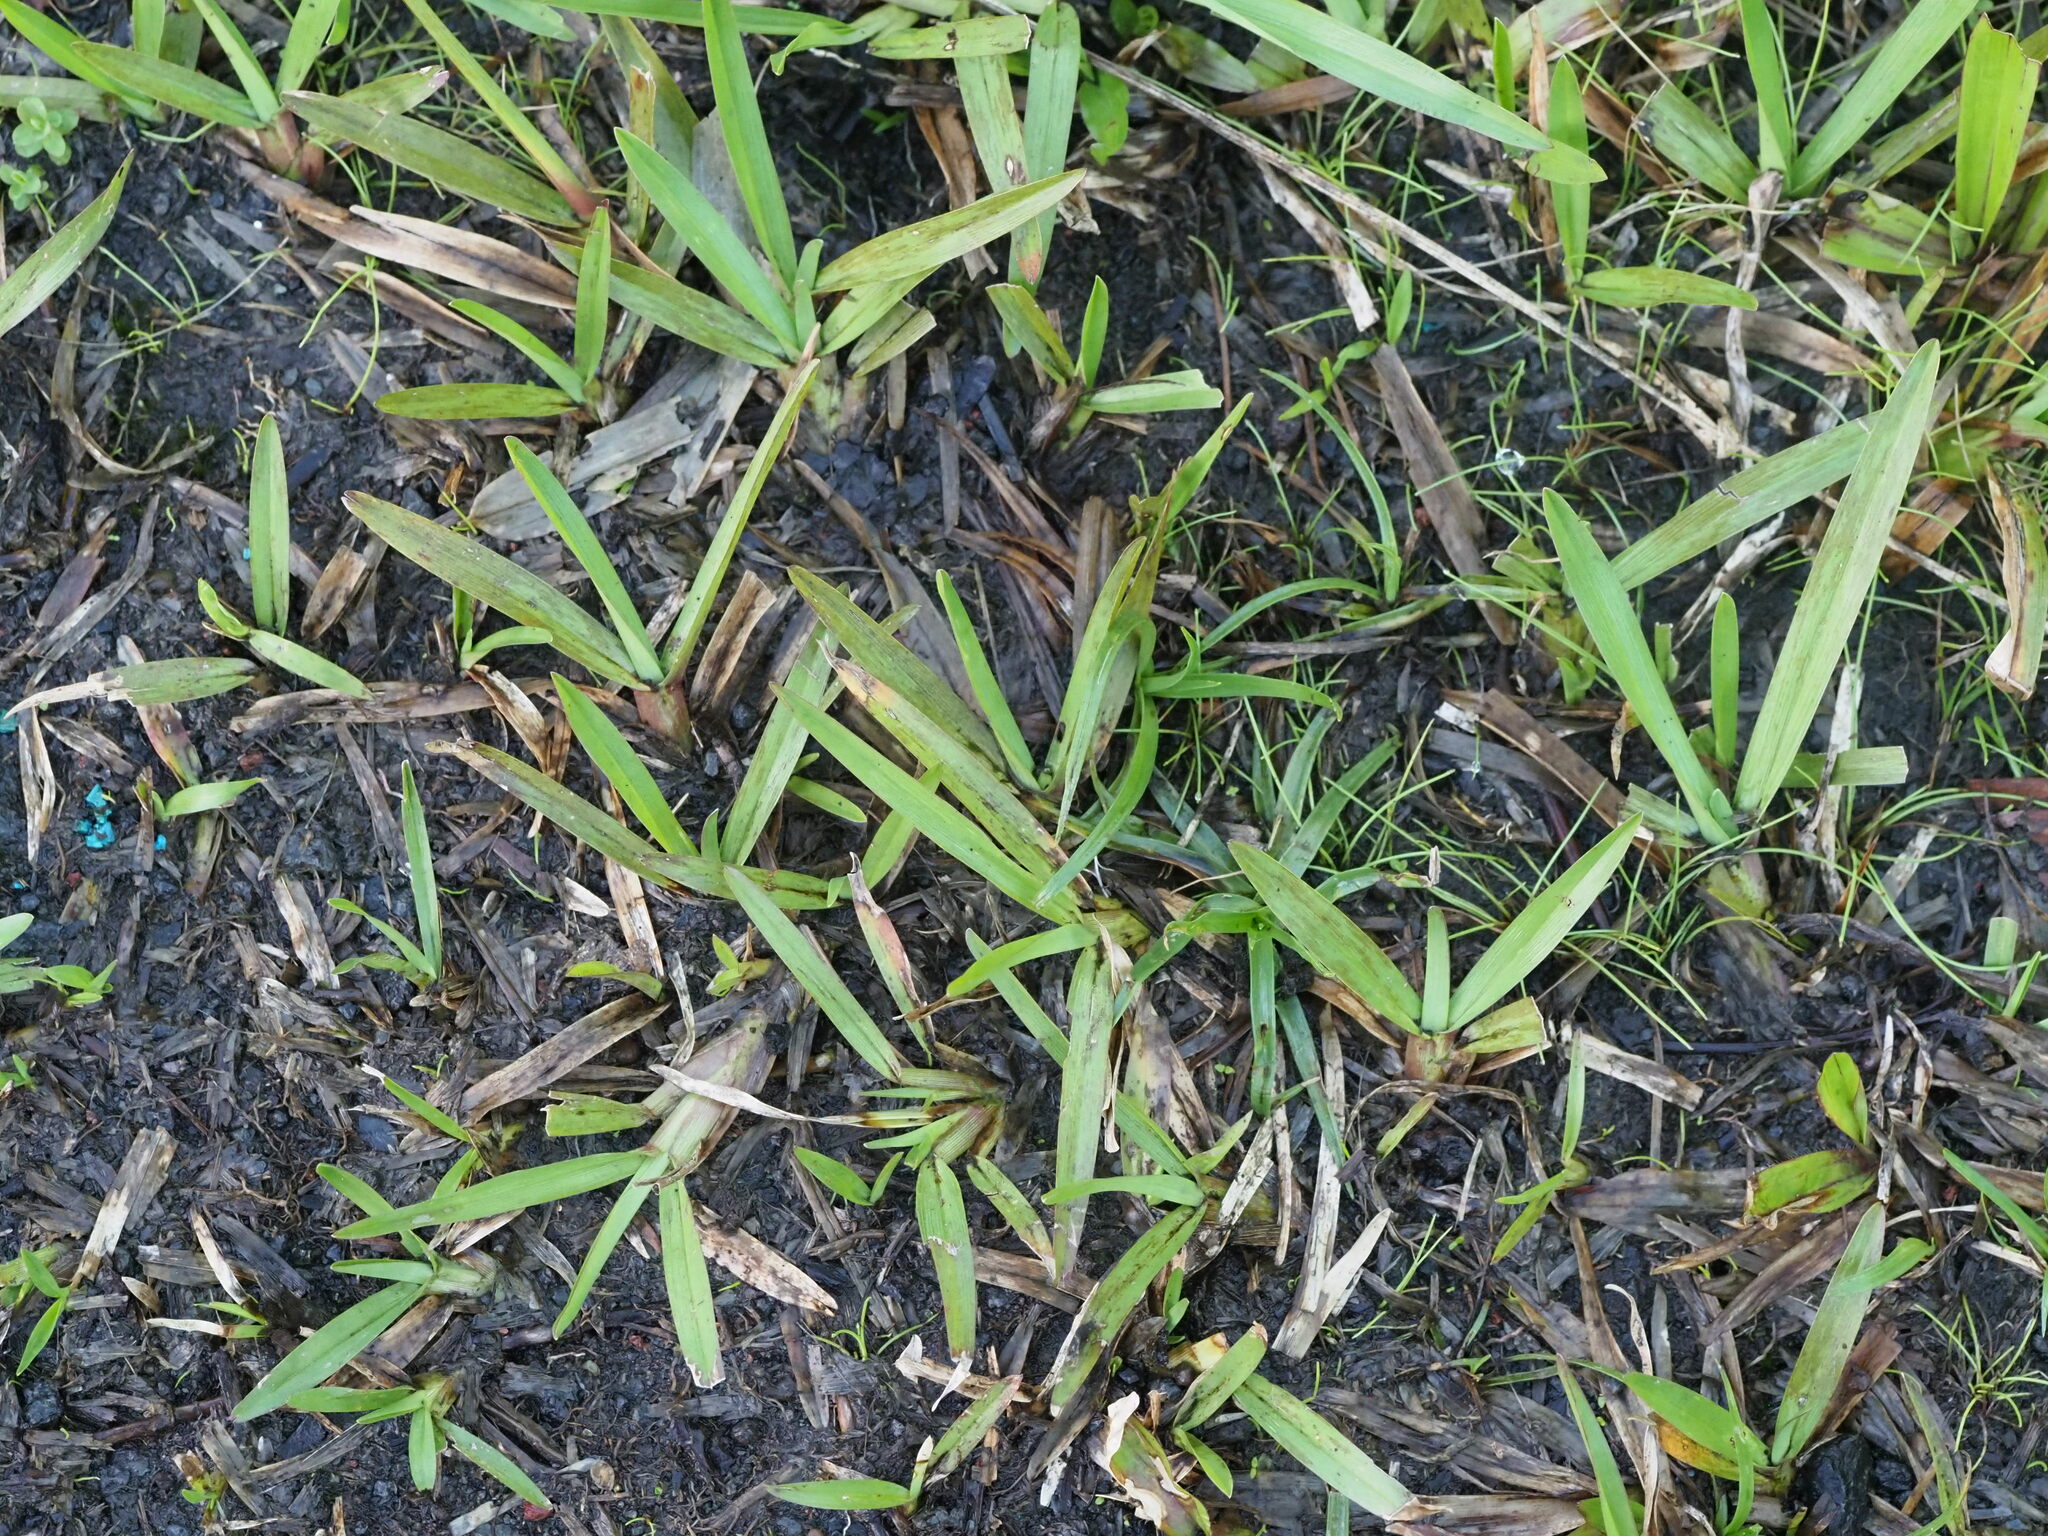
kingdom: Plantae
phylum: Tracheophyta
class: Liliopsida
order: Poales
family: Poaceae
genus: Axonopus
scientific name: Axonopus fissifolius
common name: Common carpetgrass
